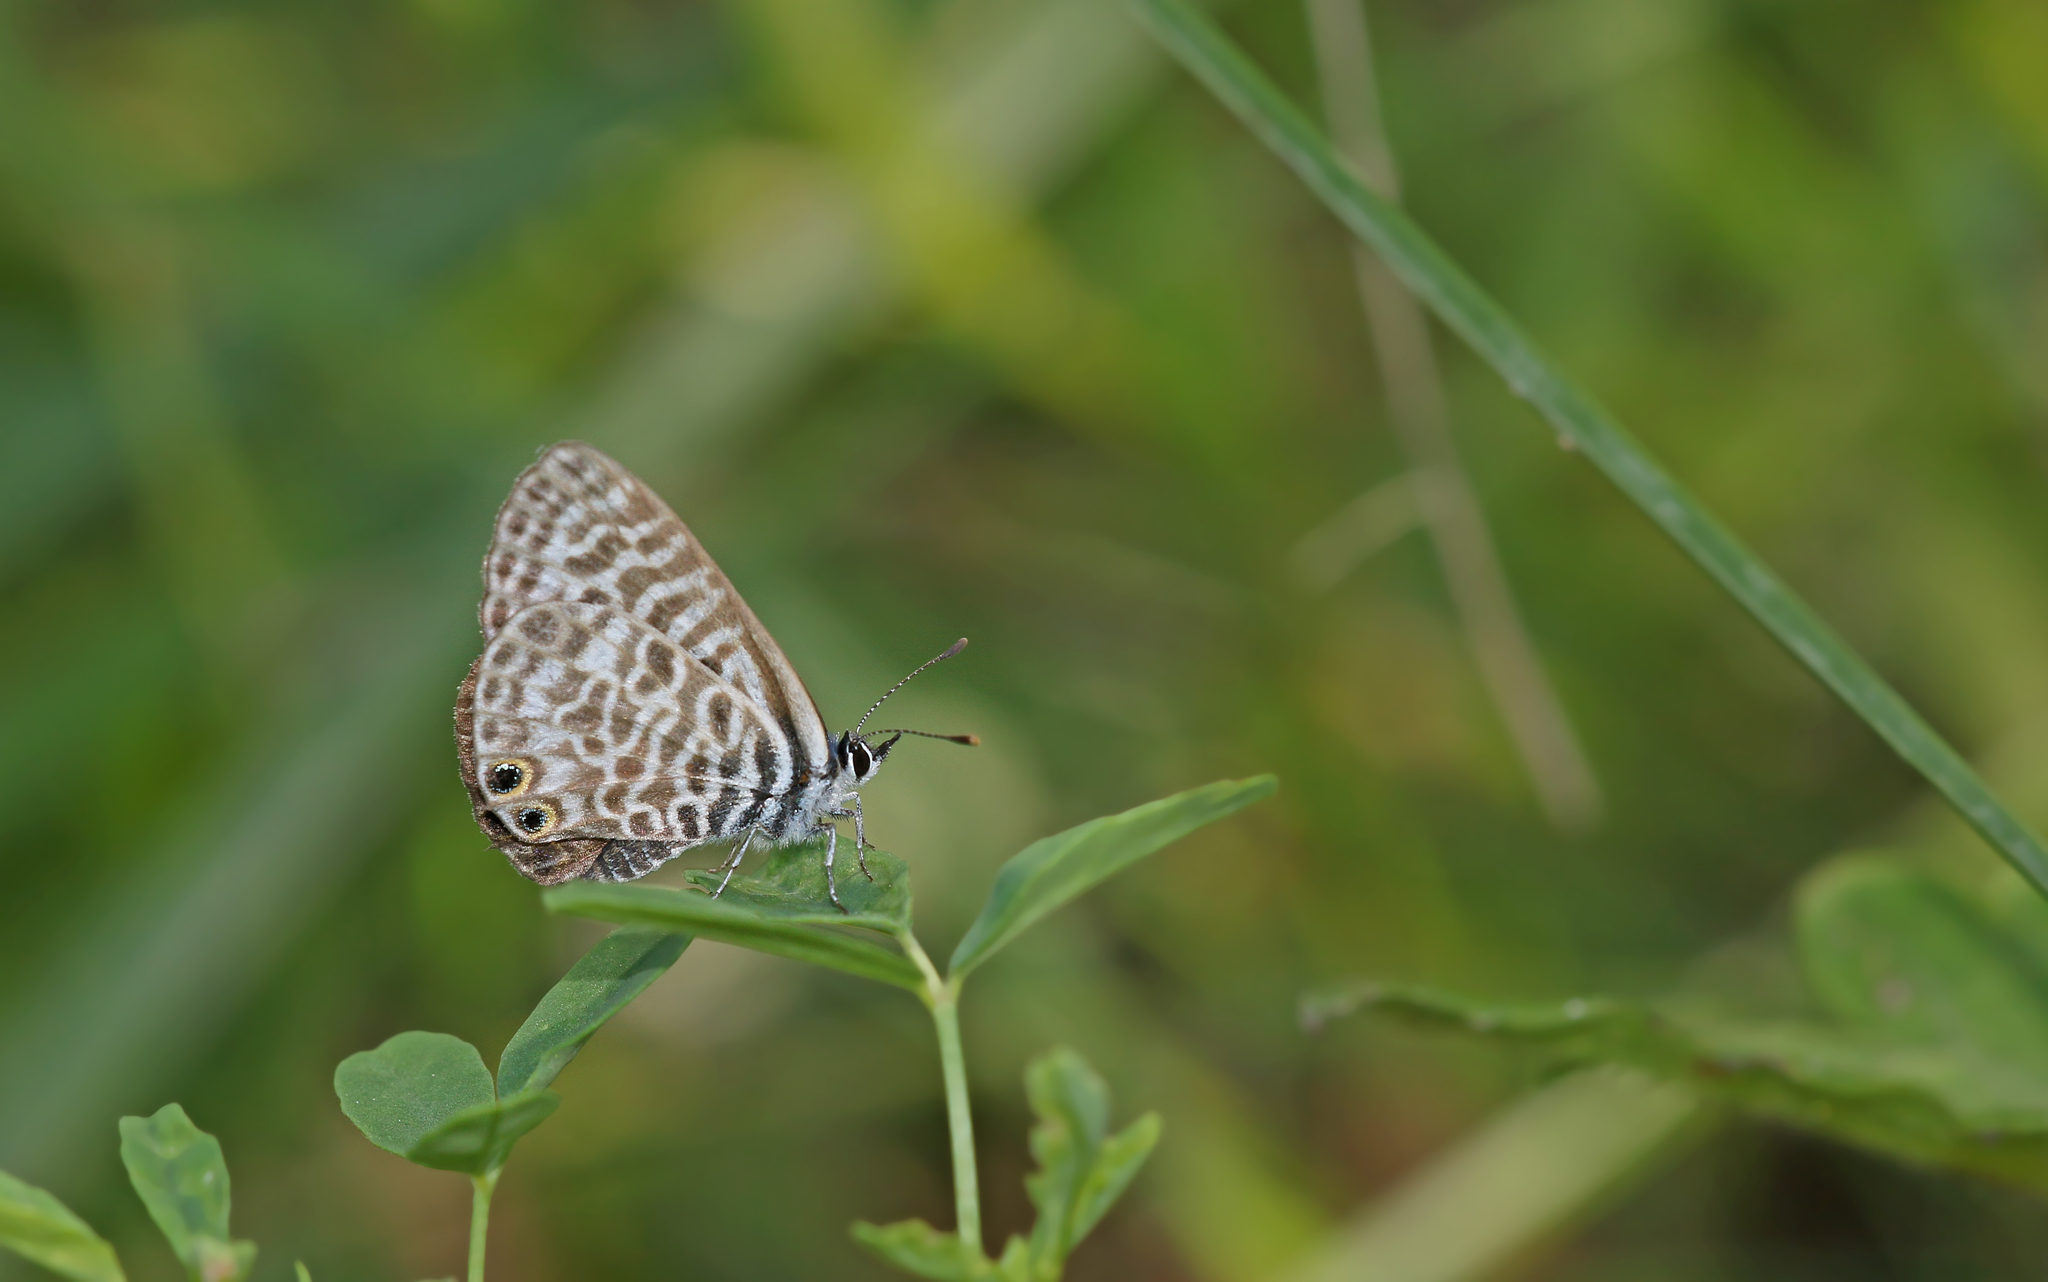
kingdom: Animalia
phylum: Arthropoda
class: Insecta
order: Lepidoptera
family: Lycaenidae
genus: Leptotes
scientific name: Leptotes pirithous
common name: Lang's short-tailed blue
